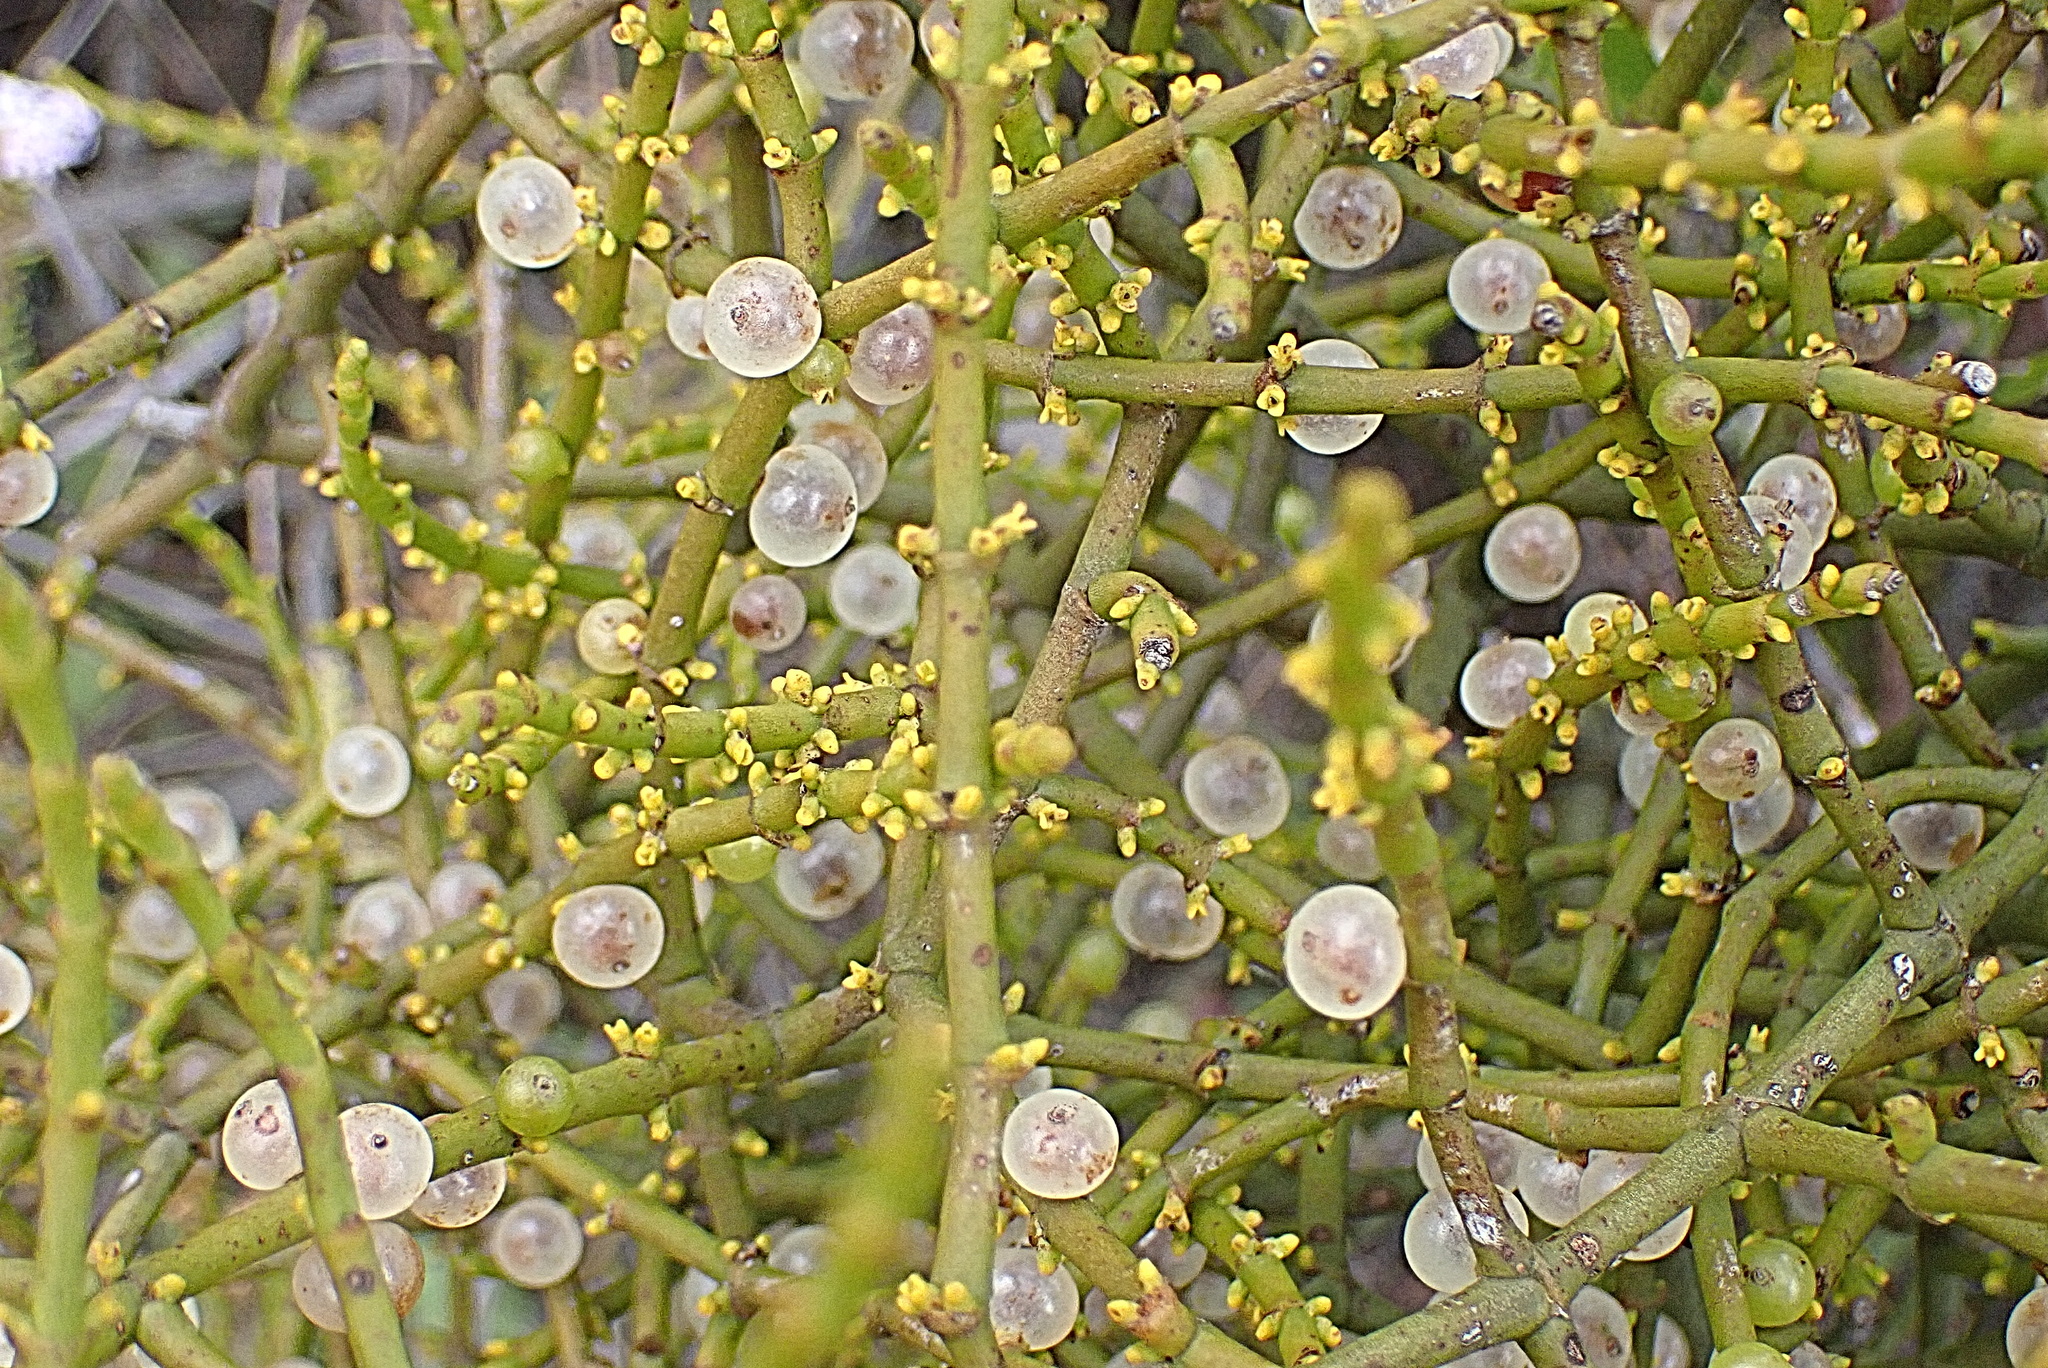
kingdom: Plantae
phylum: Tracheophyta
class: Magnoliopsida
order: Santalales
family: Viscaceae
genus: Viscum
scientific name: Viscum rotundifolium
